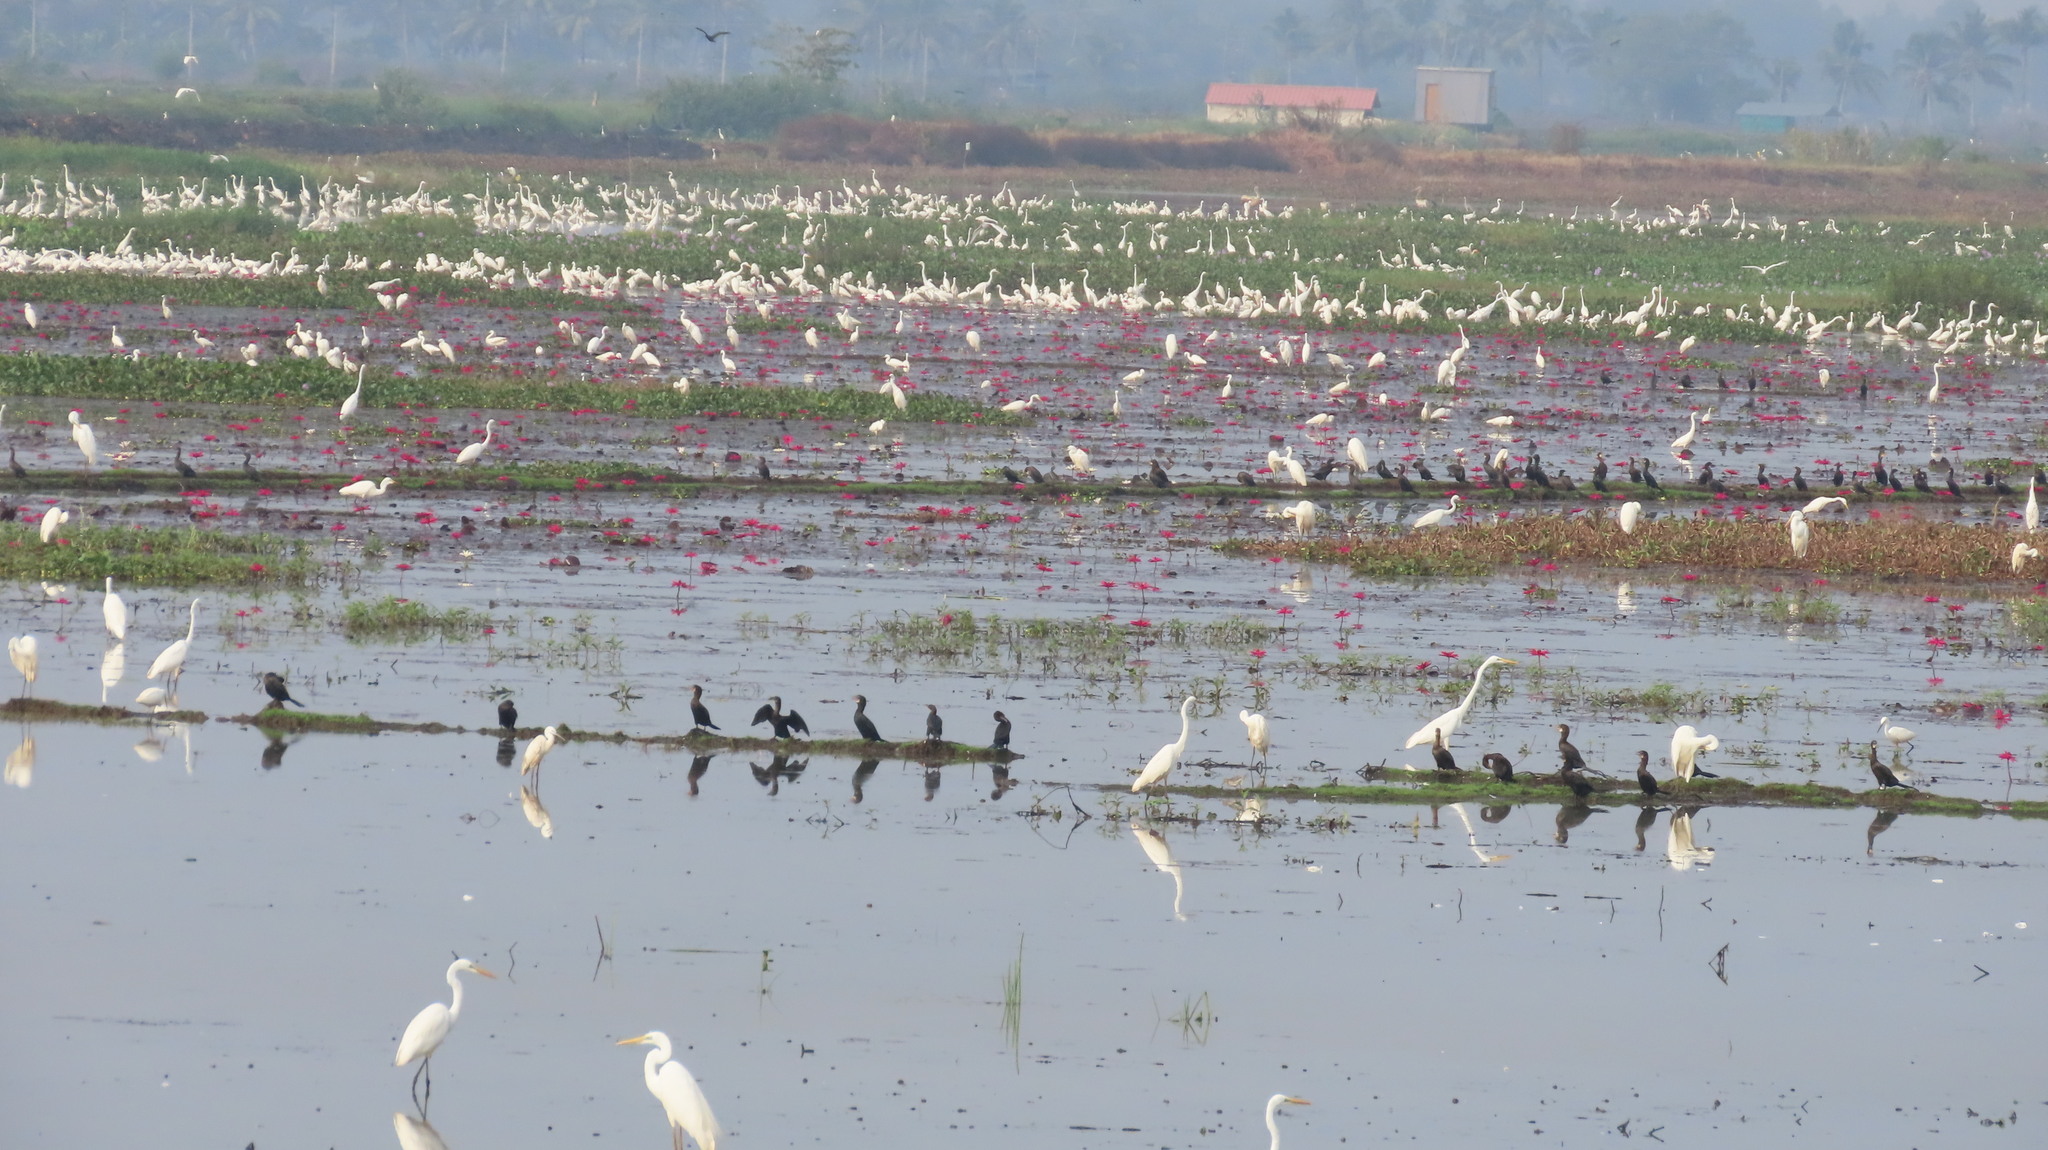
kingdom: Animalia
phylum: Chordata
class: Aves
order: Pelecaniformes
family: Ardeidae
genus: Egretta
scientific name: Egretta garzetta
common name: Little egret
